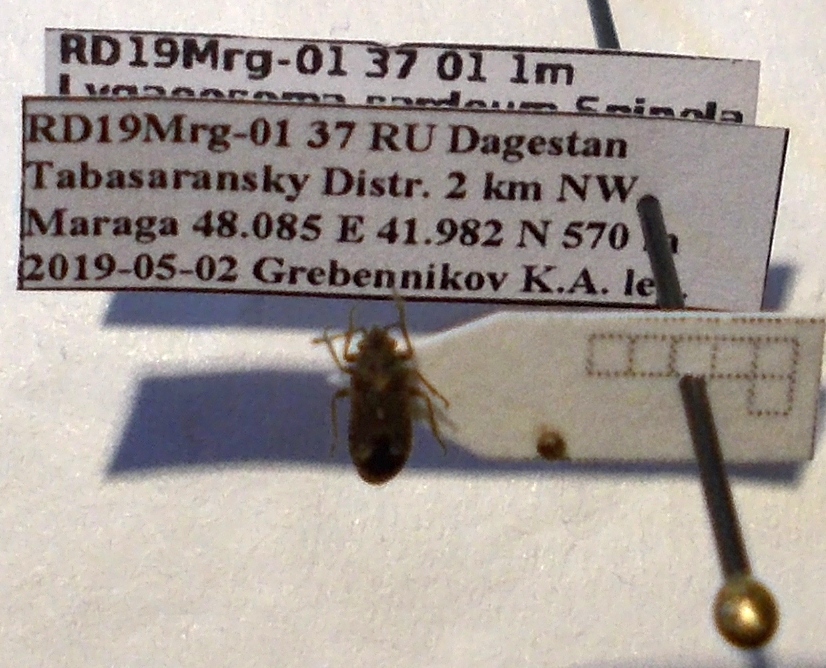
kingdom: Animalia
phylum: Arthropoda
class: Insecta
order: Hemiptera
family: Lygaeidae
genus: Lygaeosoma
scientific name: Lygaeosoma sardeum
